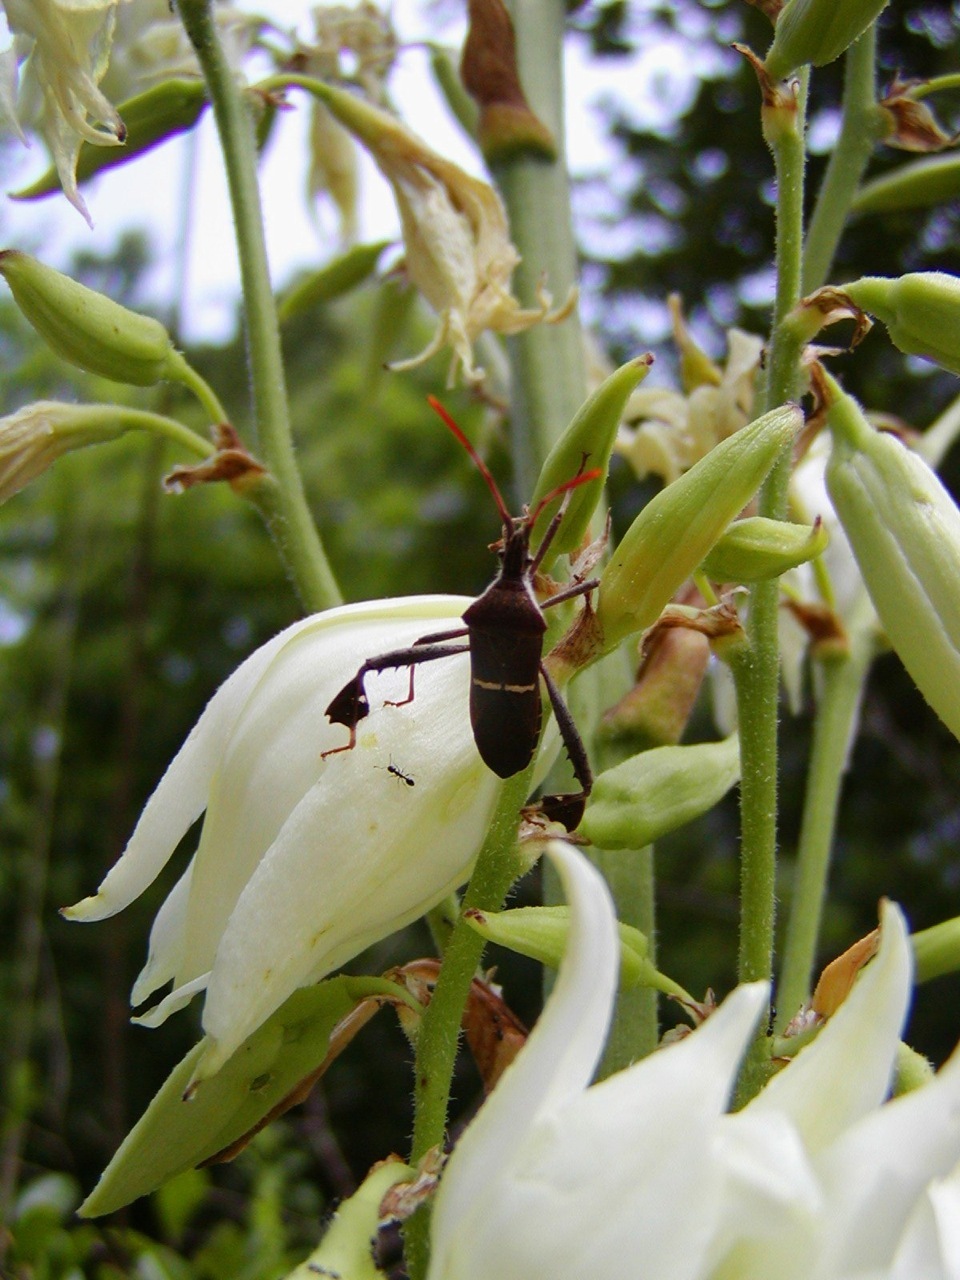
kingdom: Animalia
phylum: Arthropoda
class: Insecta
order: Hemiptera
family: Coreidae
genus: Leptoglossus
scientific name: Leptoglossus phyllopus
